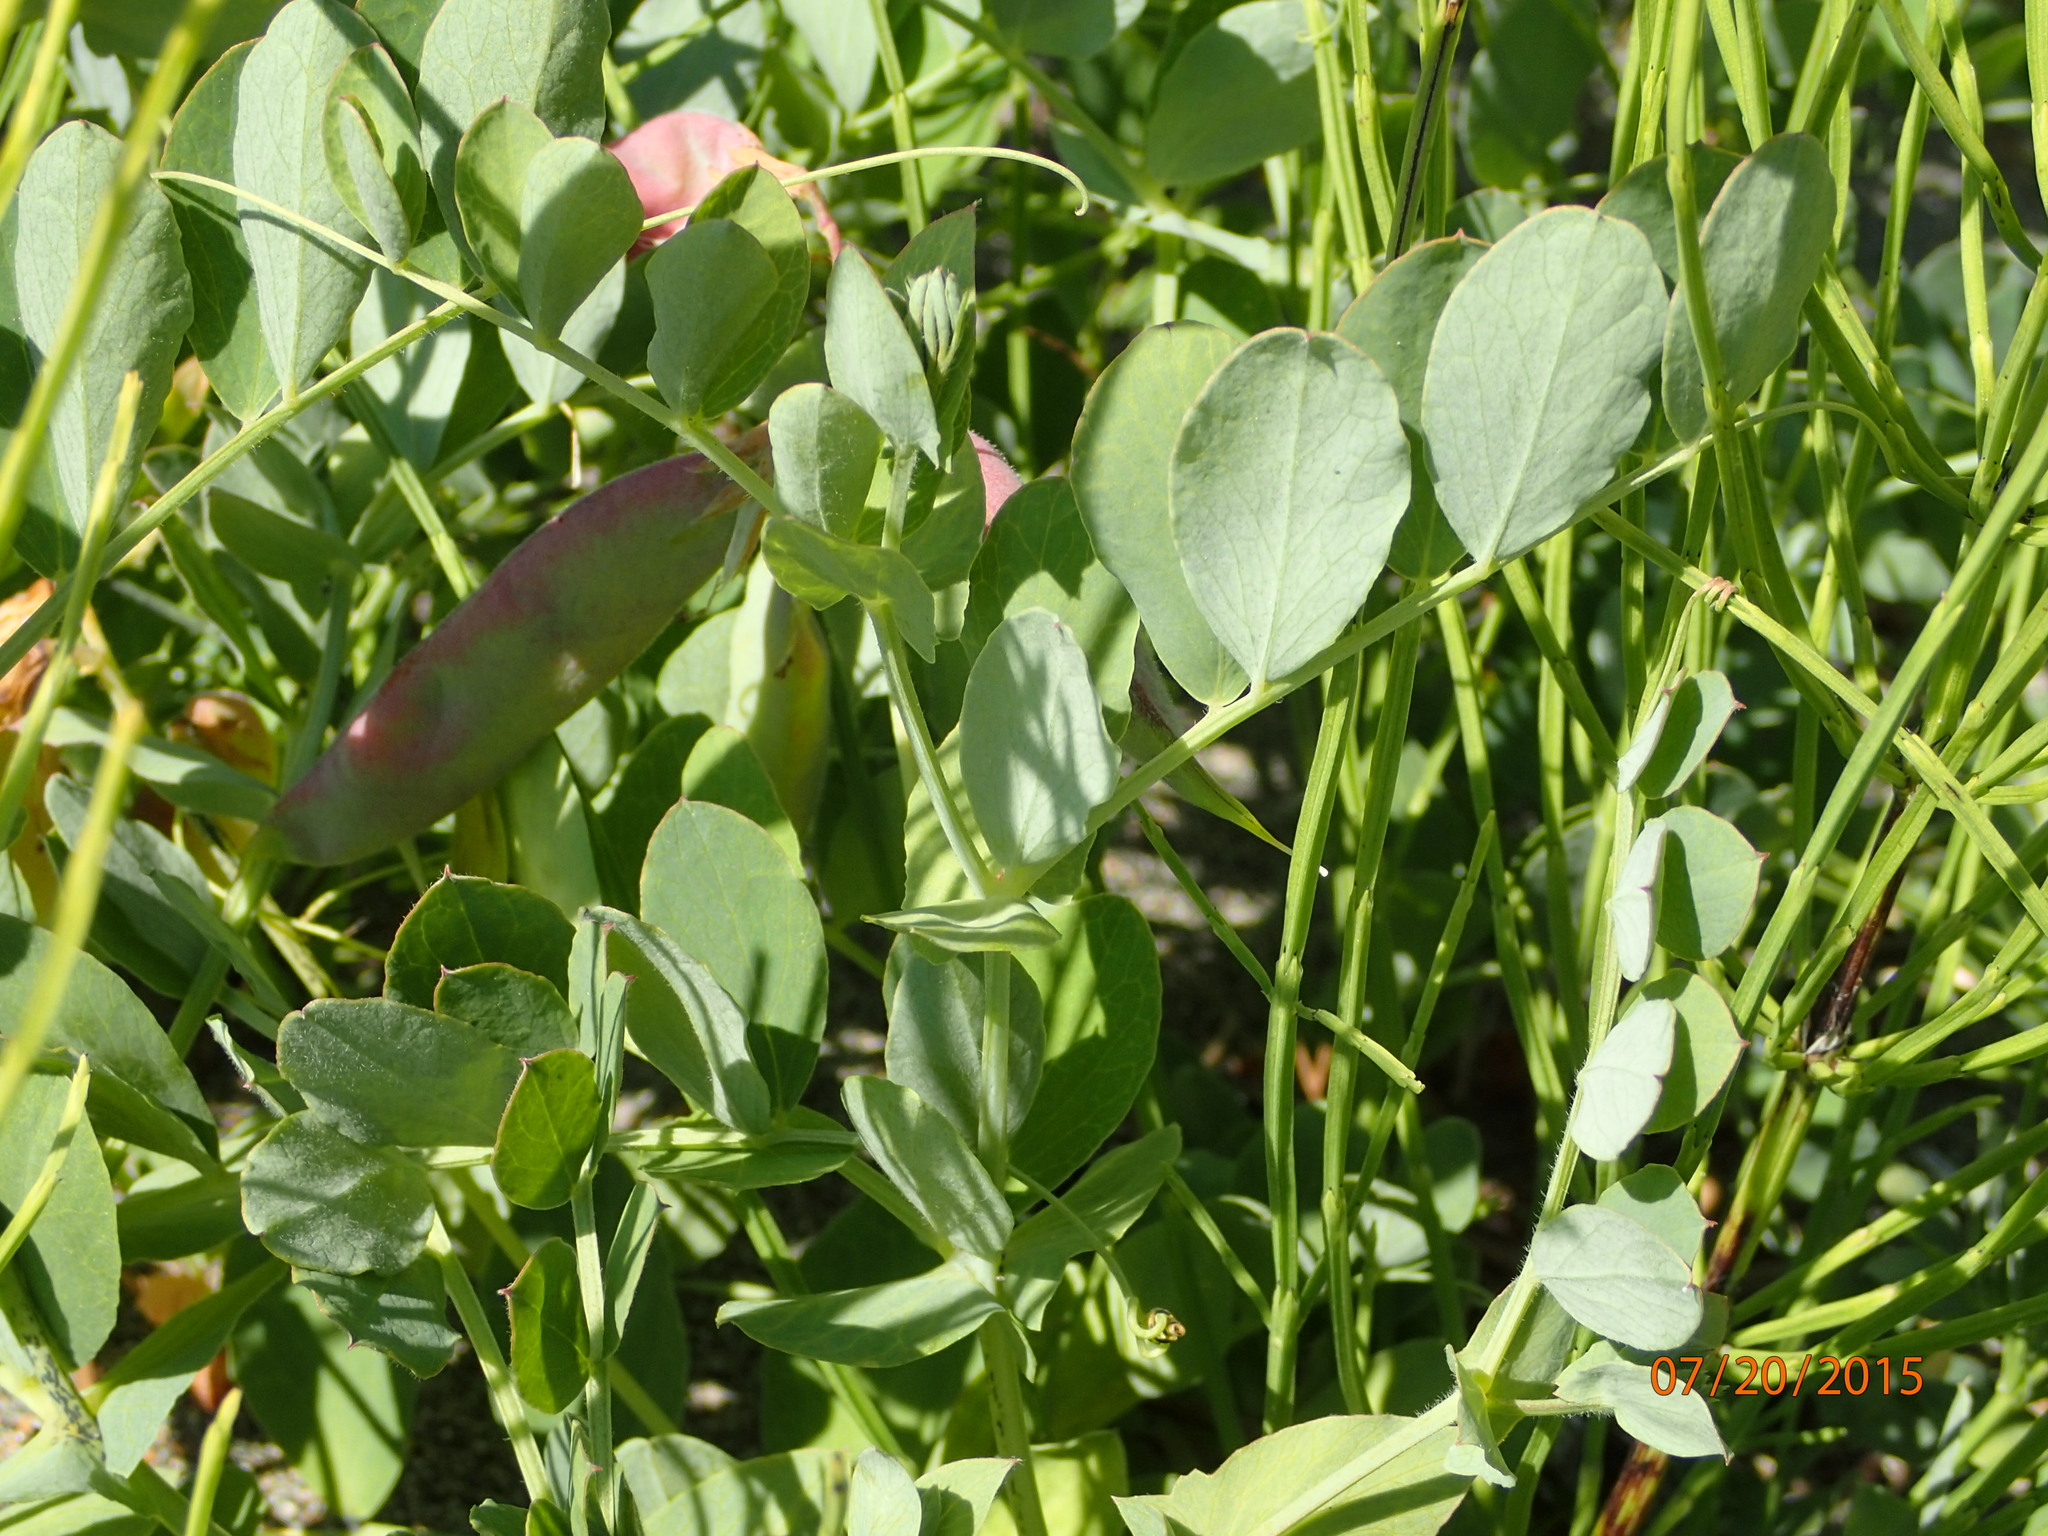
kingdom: Plantae
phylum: Tracheophyta
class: Magnoliopsida
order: Fabales
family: Fabaceae
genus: Lathyrus
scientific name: Lathyrus japonicus
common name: Sea pea
